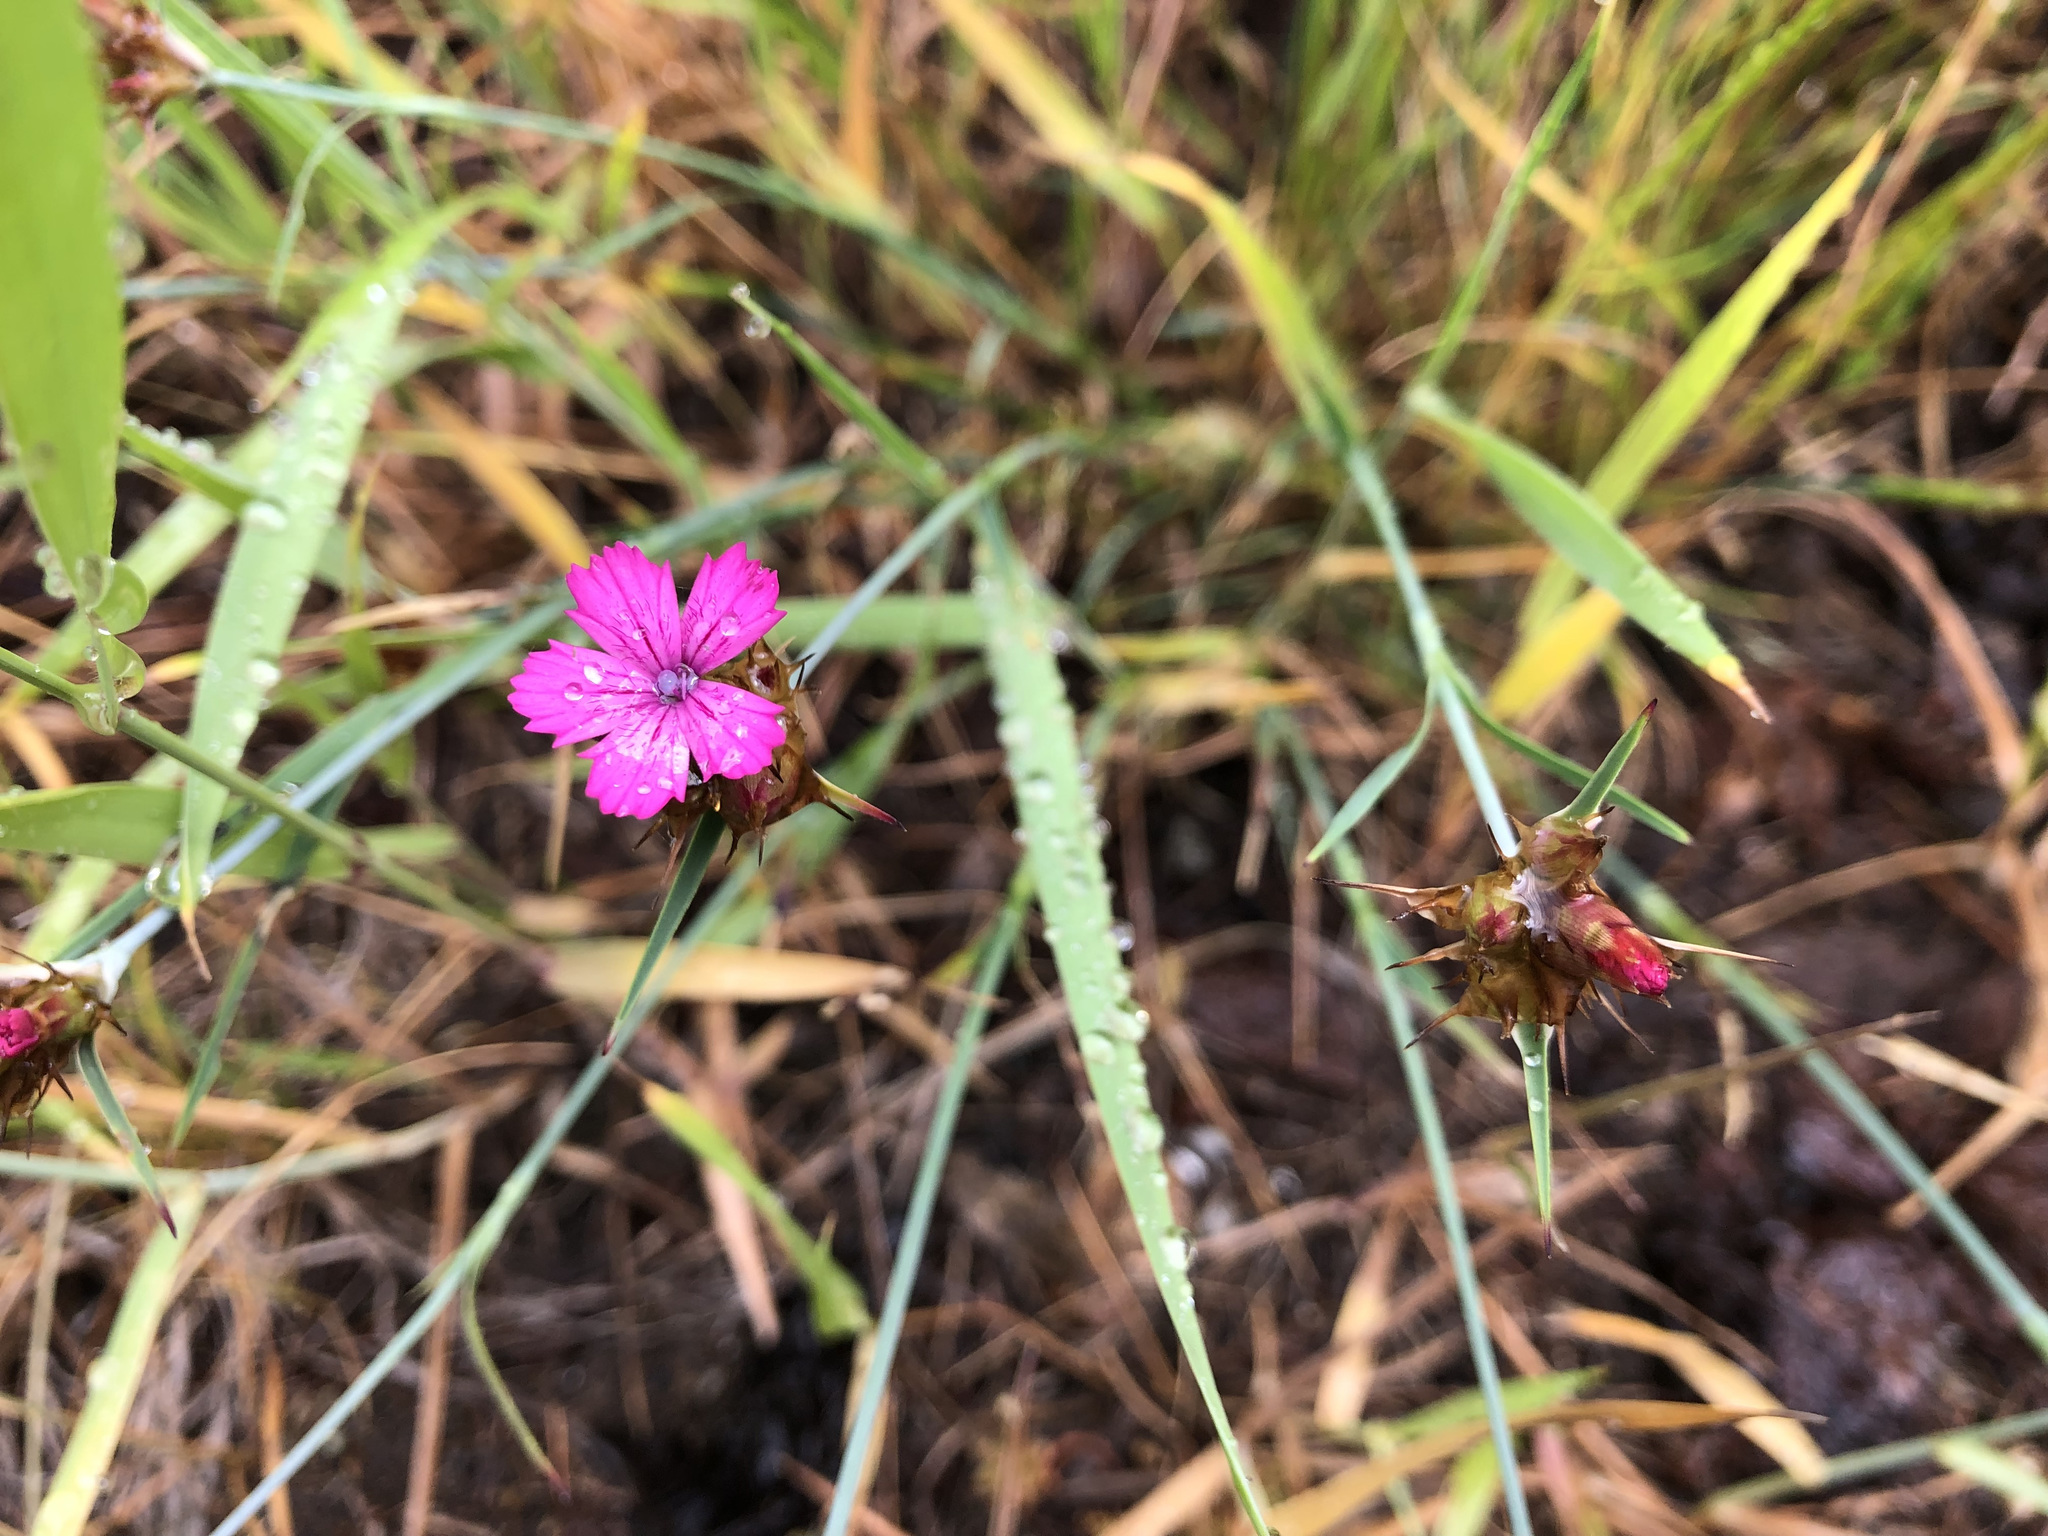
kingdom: Plantae
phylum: Tracheophyta
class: Magnoliopsida
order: Caryophyllales
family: Caryophyllaceae
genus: Dianthus
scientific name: Dianthus carthusianorum
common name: Carthusian pink
